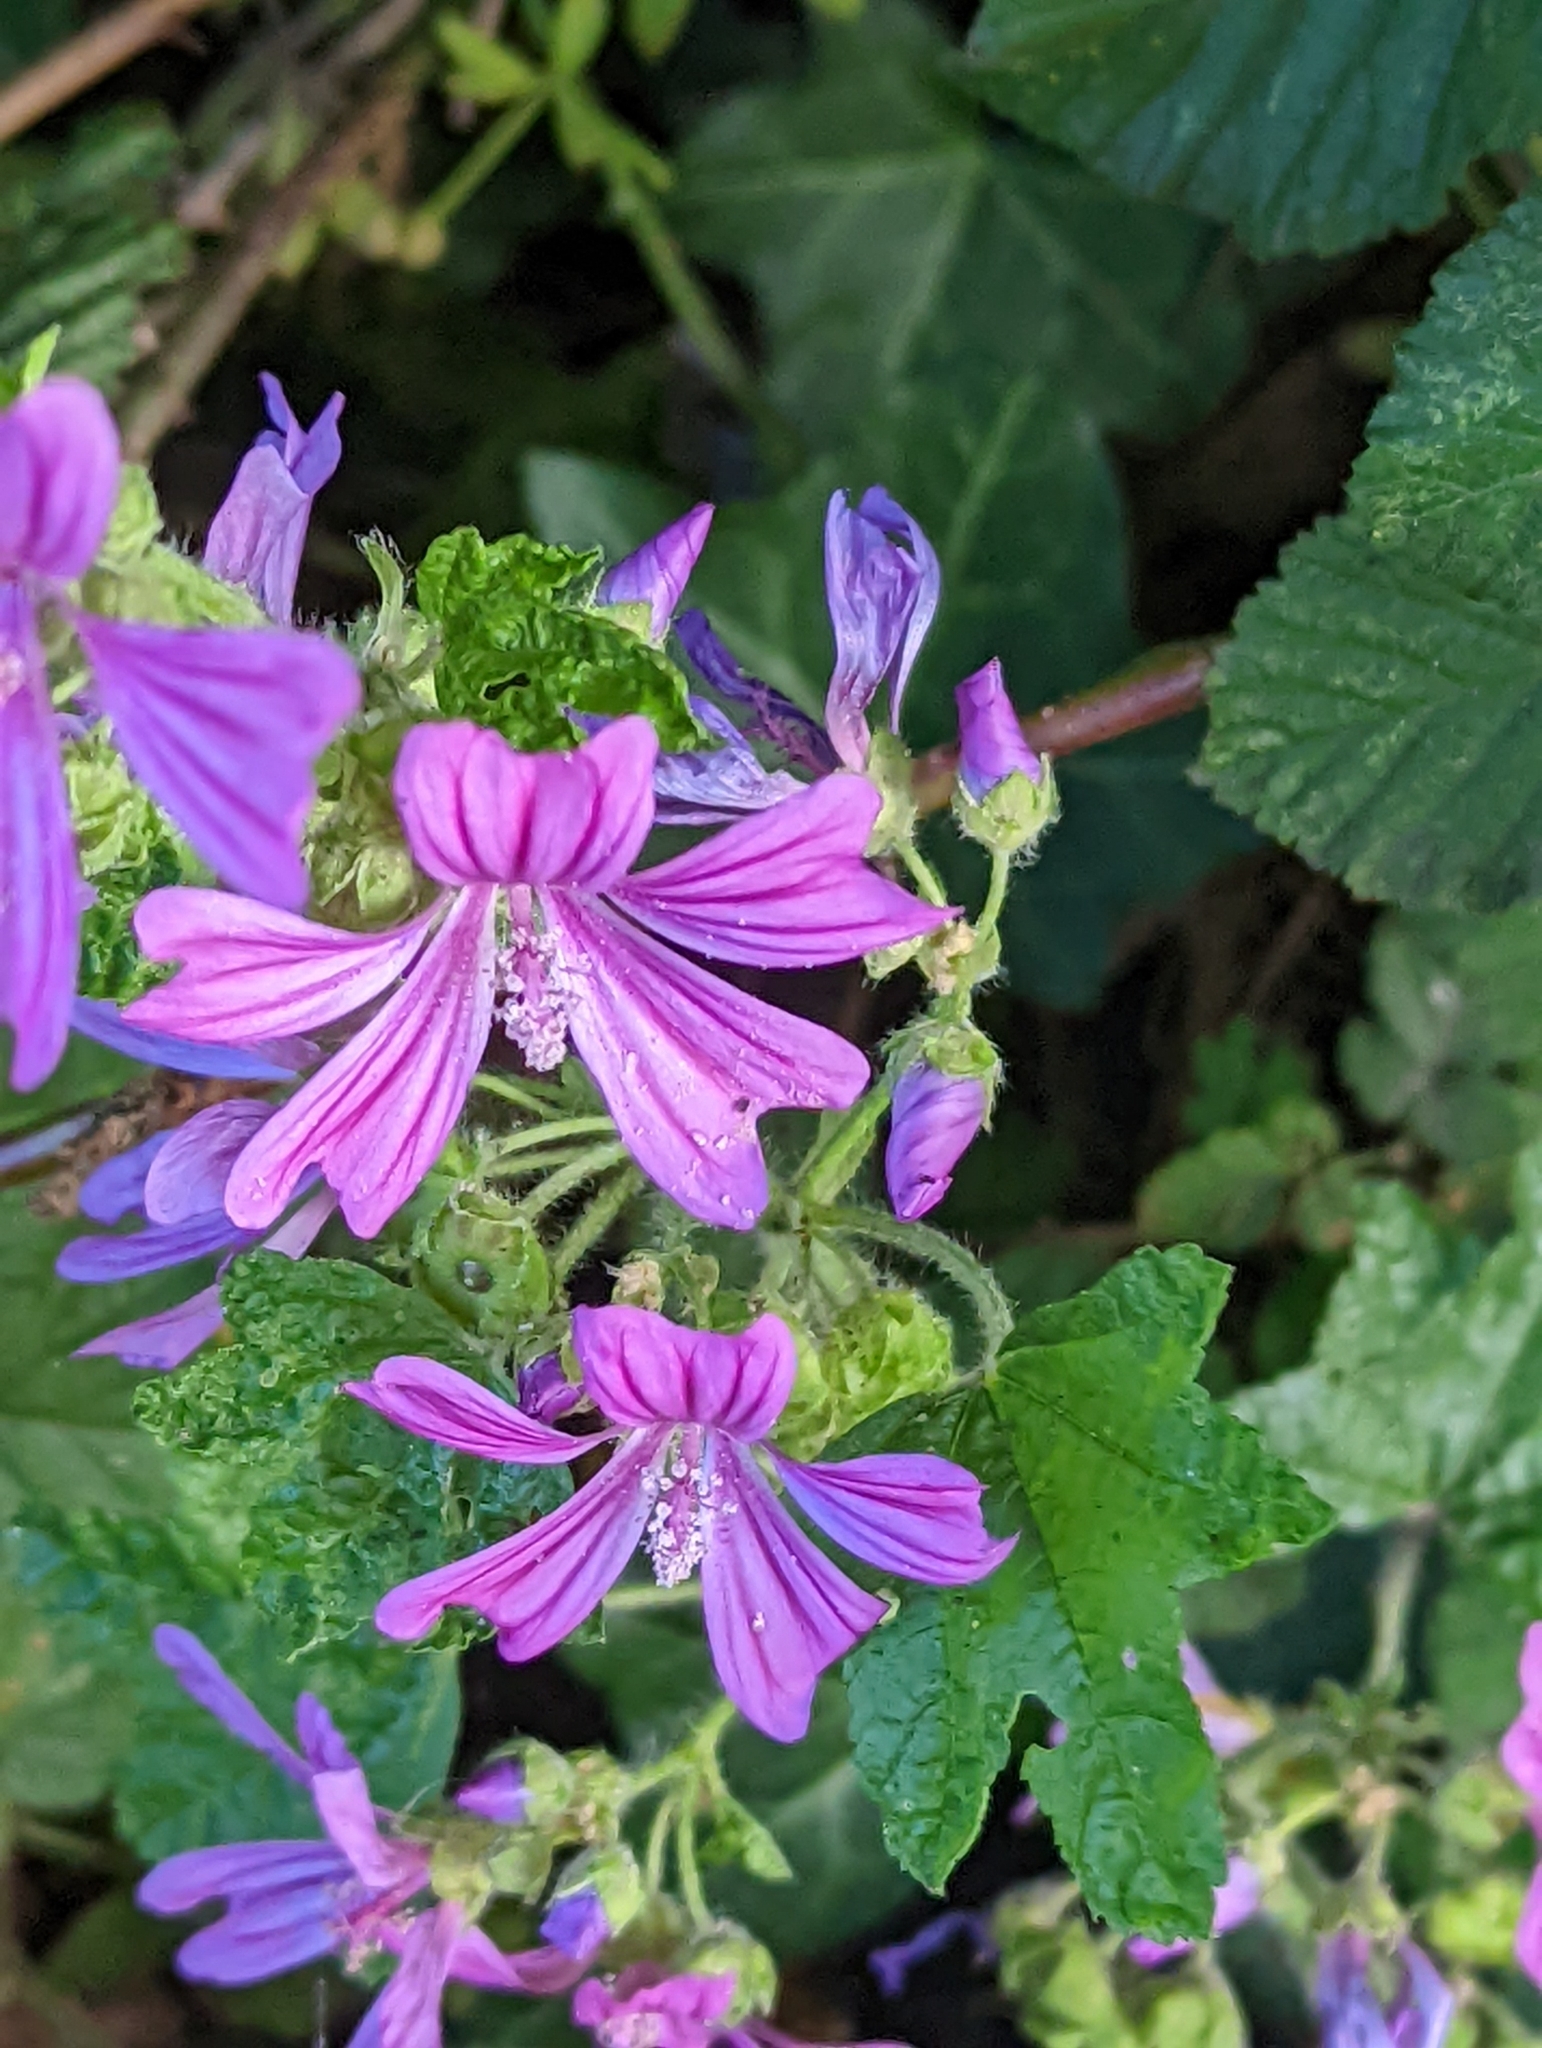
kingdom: Plantae
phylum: Tracheophyta
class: Magnoliopsida
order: Malvales
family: Malvaceae
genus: Malva
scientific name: Malva sylvestris
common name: Common mallow
